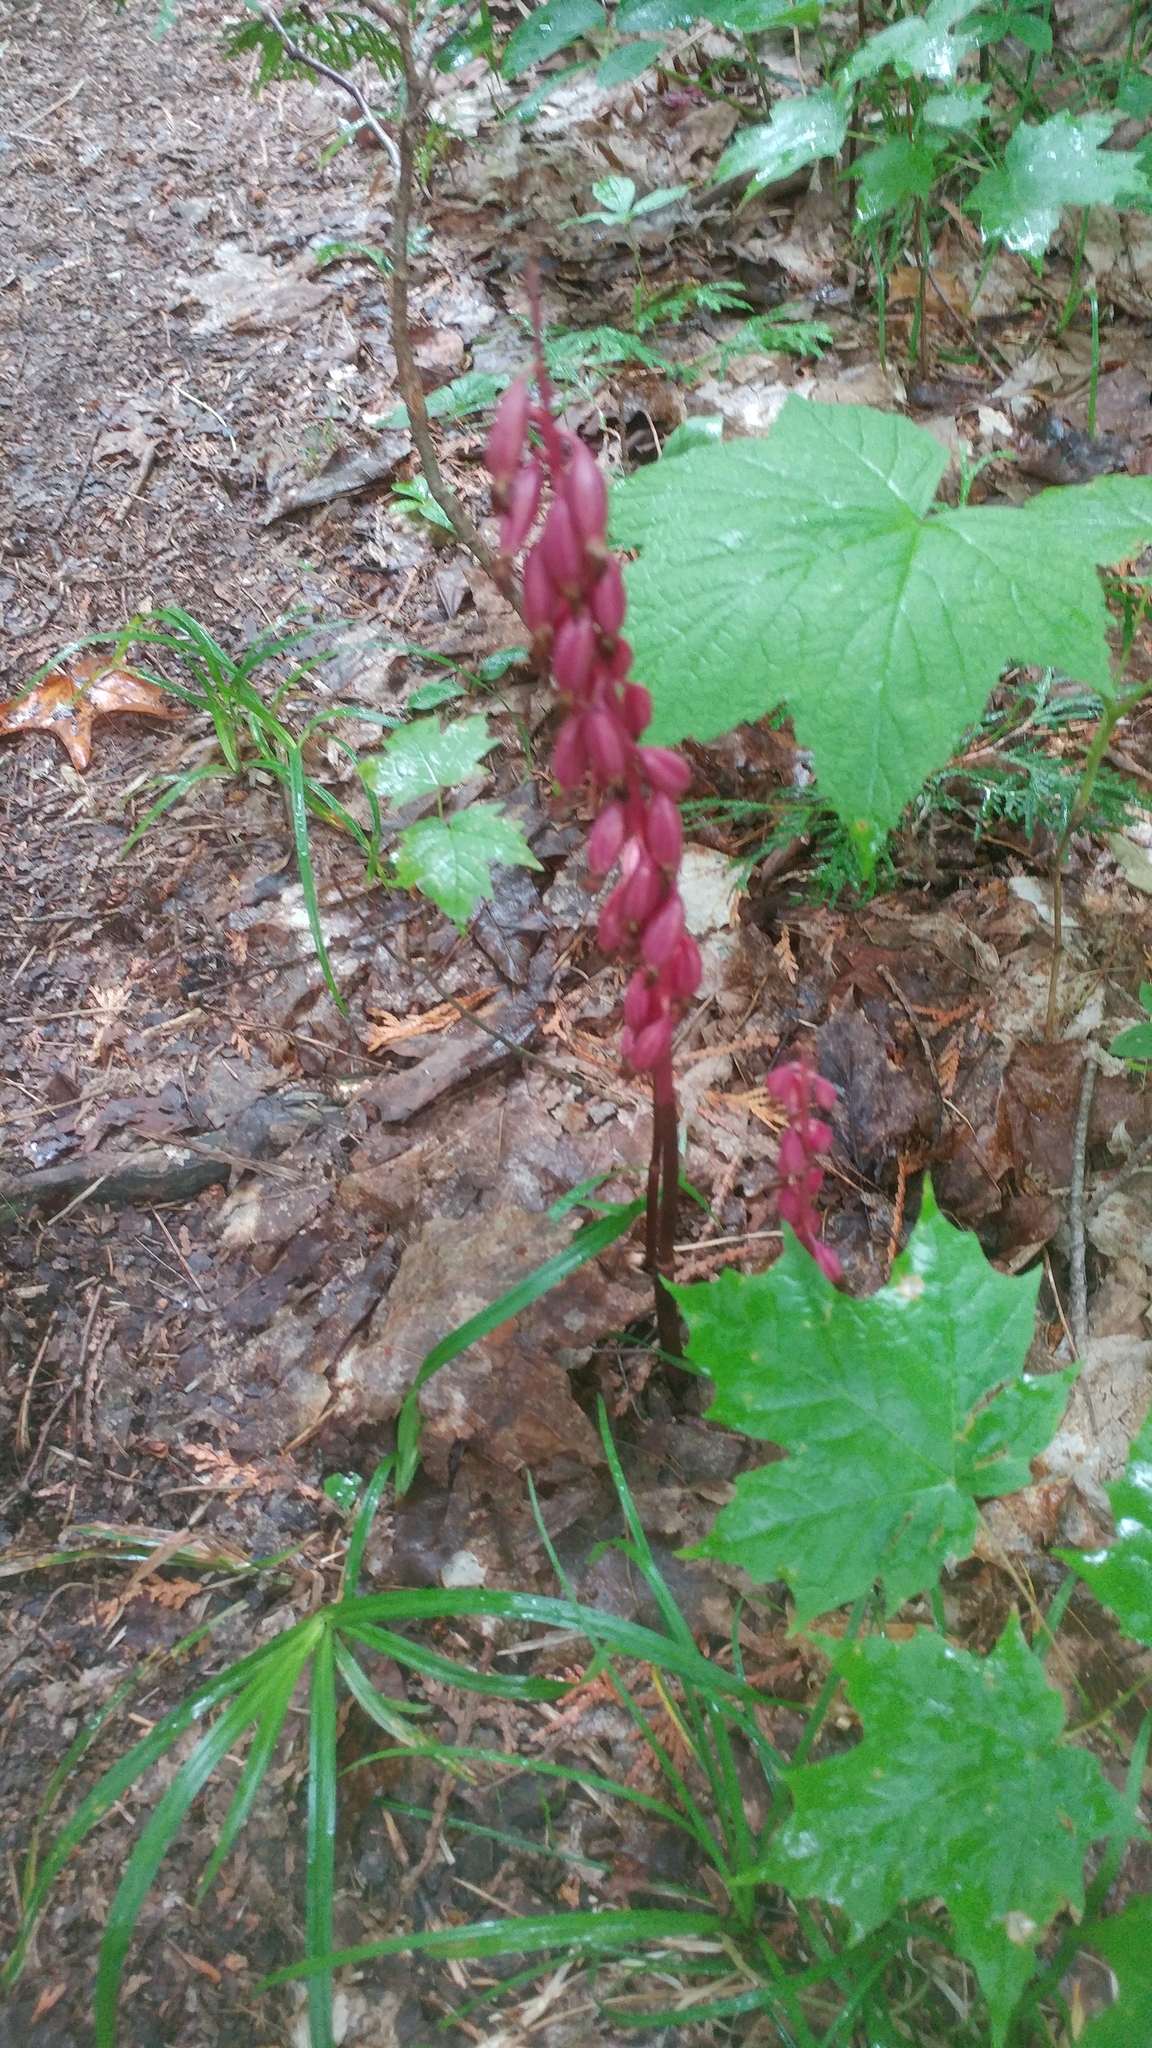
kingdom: Plantae
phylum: Tracheophyta
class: Liliopsida
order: Asparagales
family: Orchidaceae
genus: Corallorhiza
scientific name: Corallorhiza maculata
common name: Spotted coralroot
